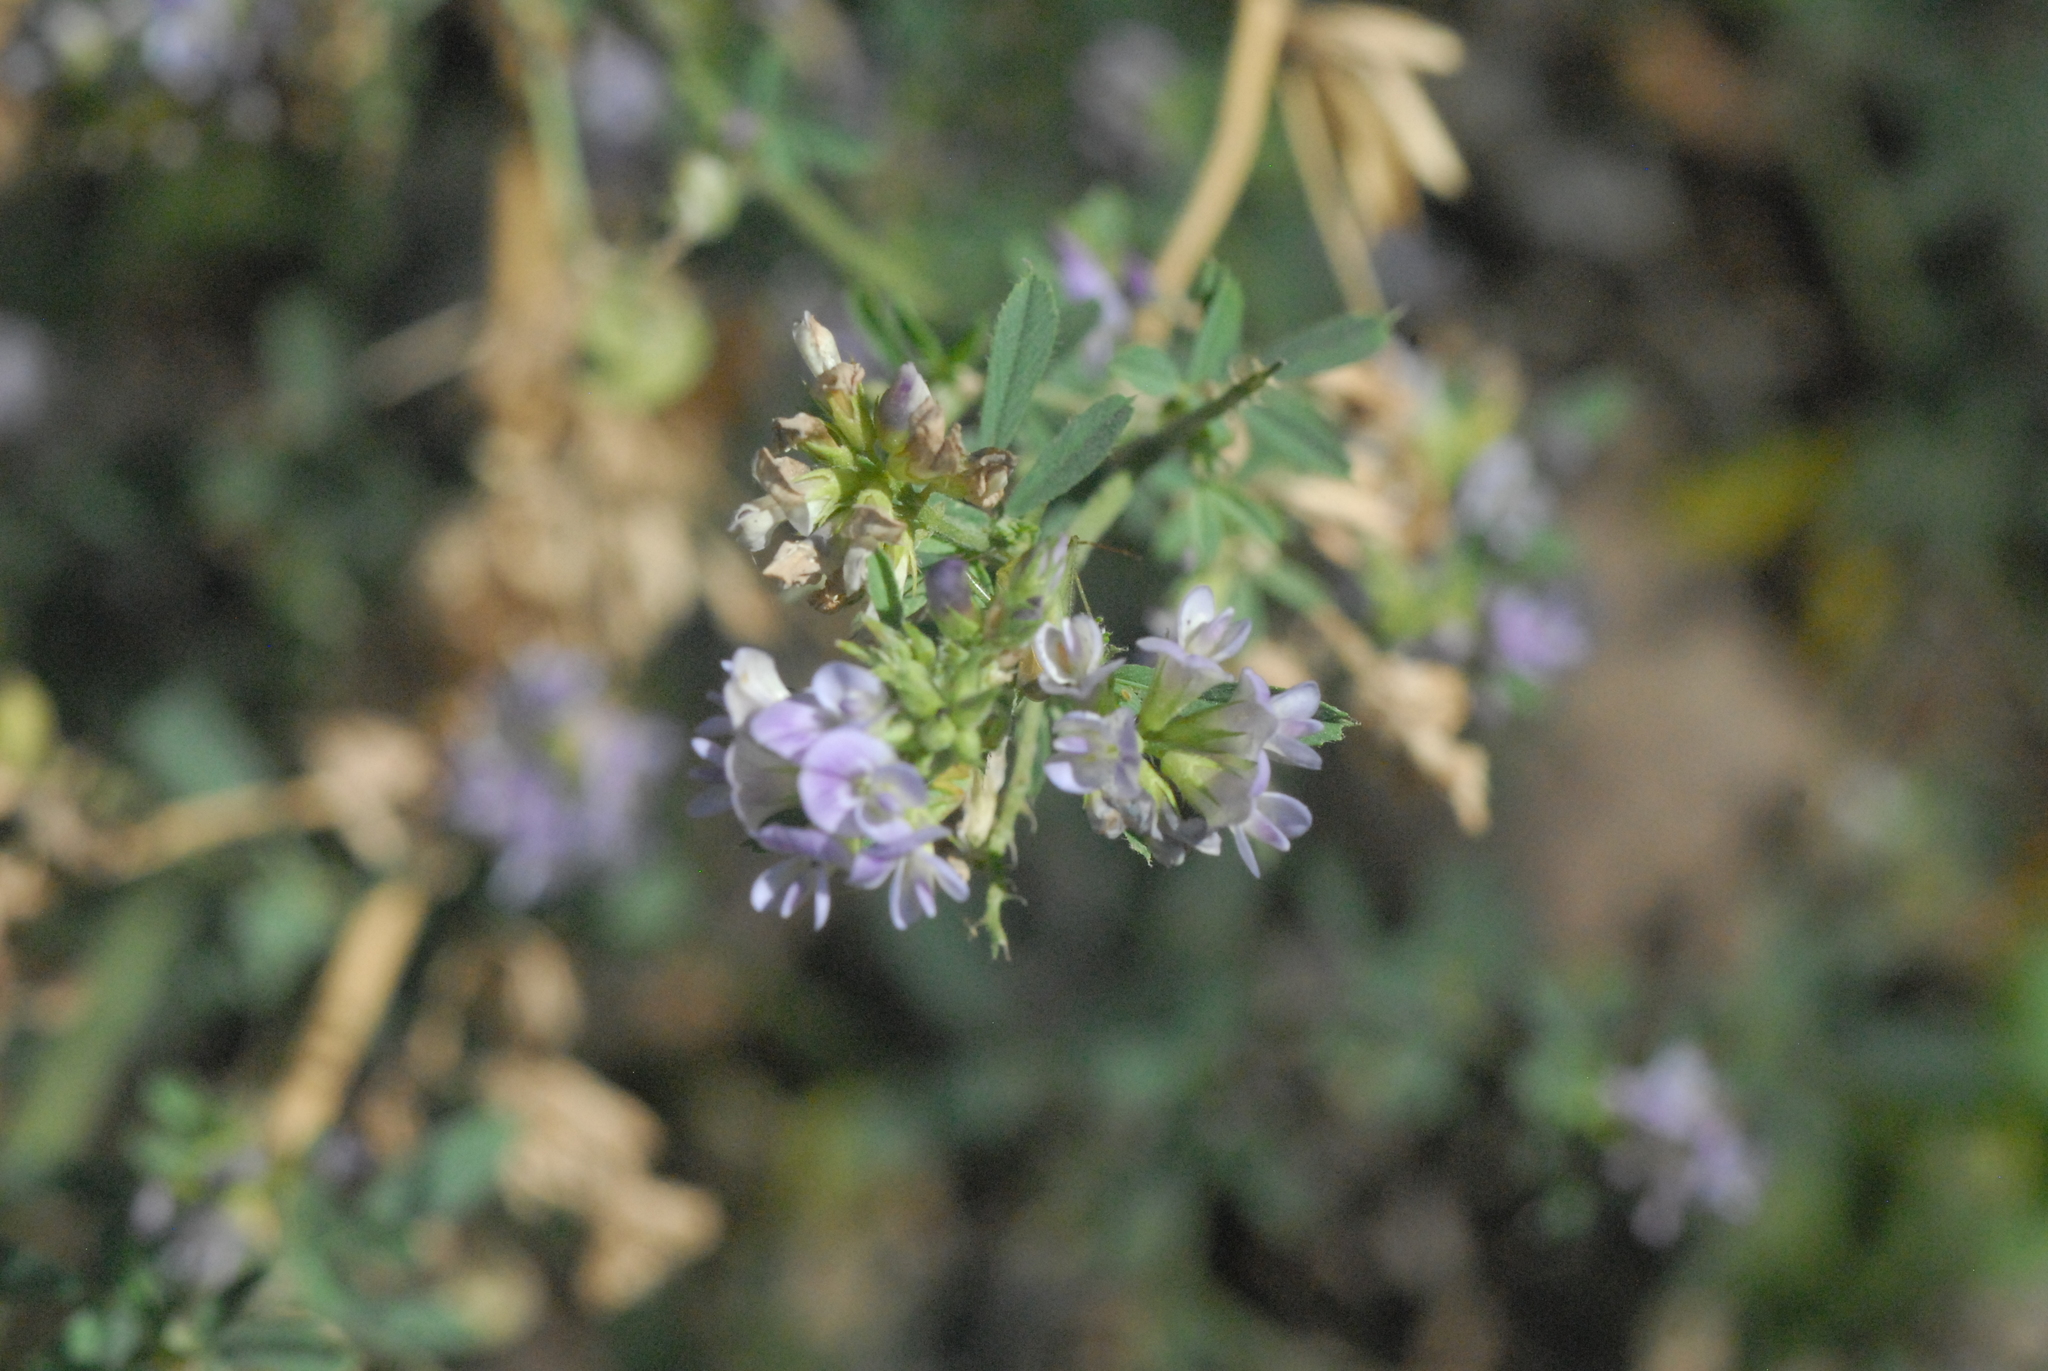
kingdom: Plantae
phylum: Tracheophyta
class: Magnoliopsida
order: Fabales
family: Fabaceae
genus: Medicago
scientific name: Medicago sativa
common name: Alfalfa
